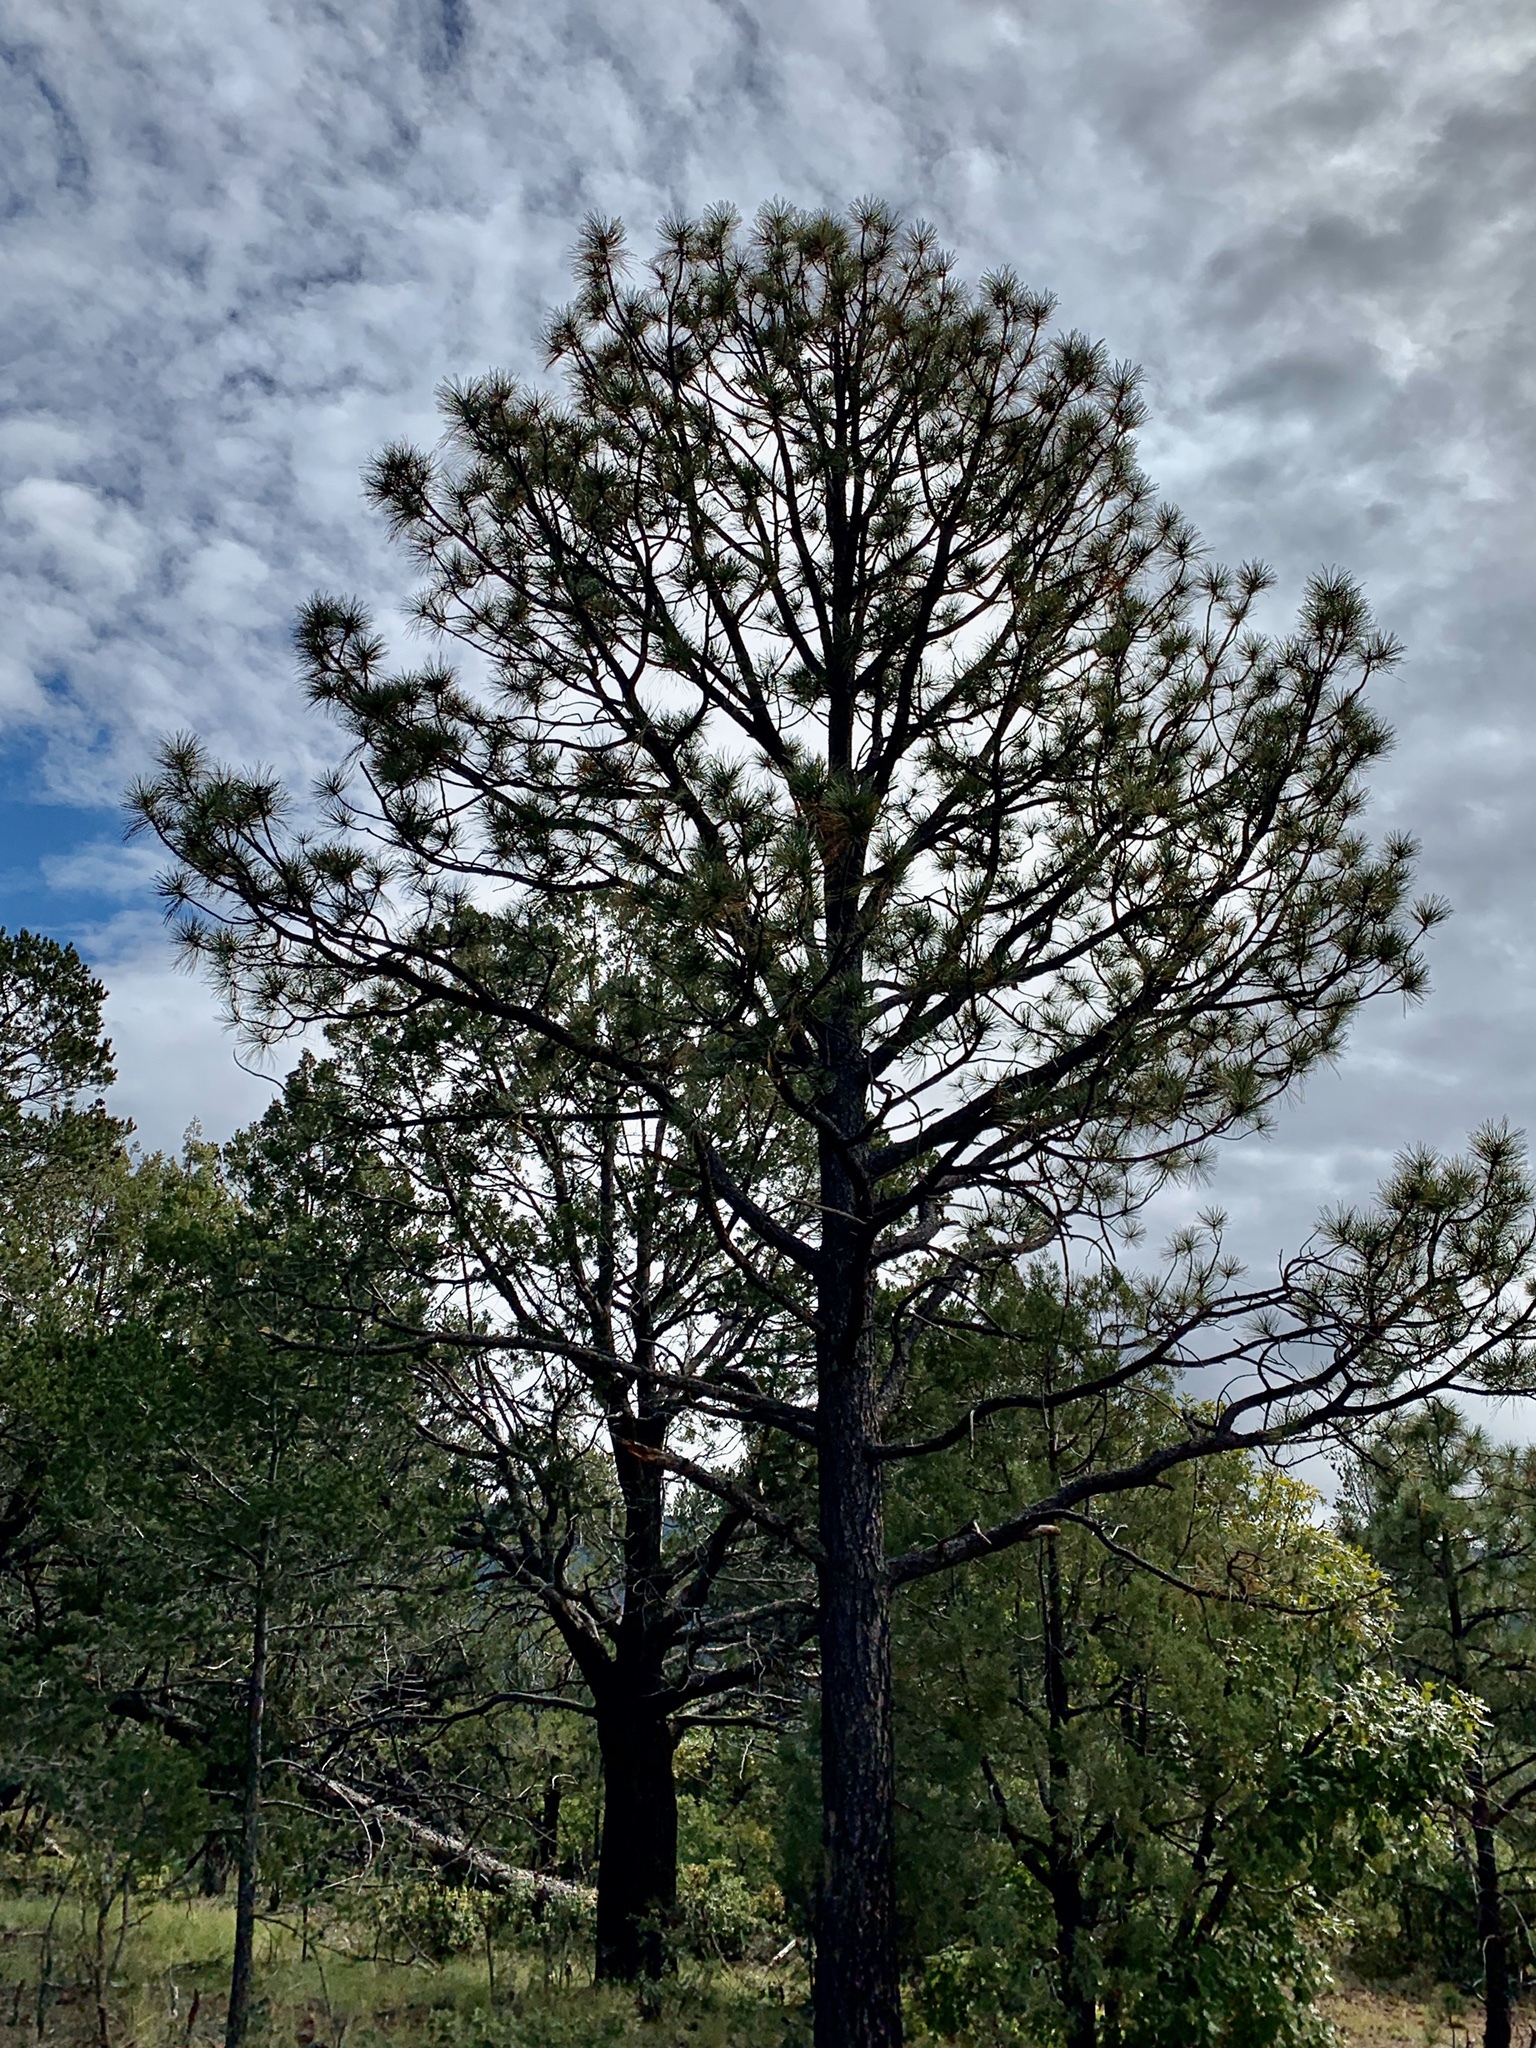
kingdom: Plantae
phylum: Tracheophyta
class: Pinopsida
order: Pinales
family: Pinaceae
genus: Pinus
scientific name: Pinus ponderosa
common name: Western yellow-pine
